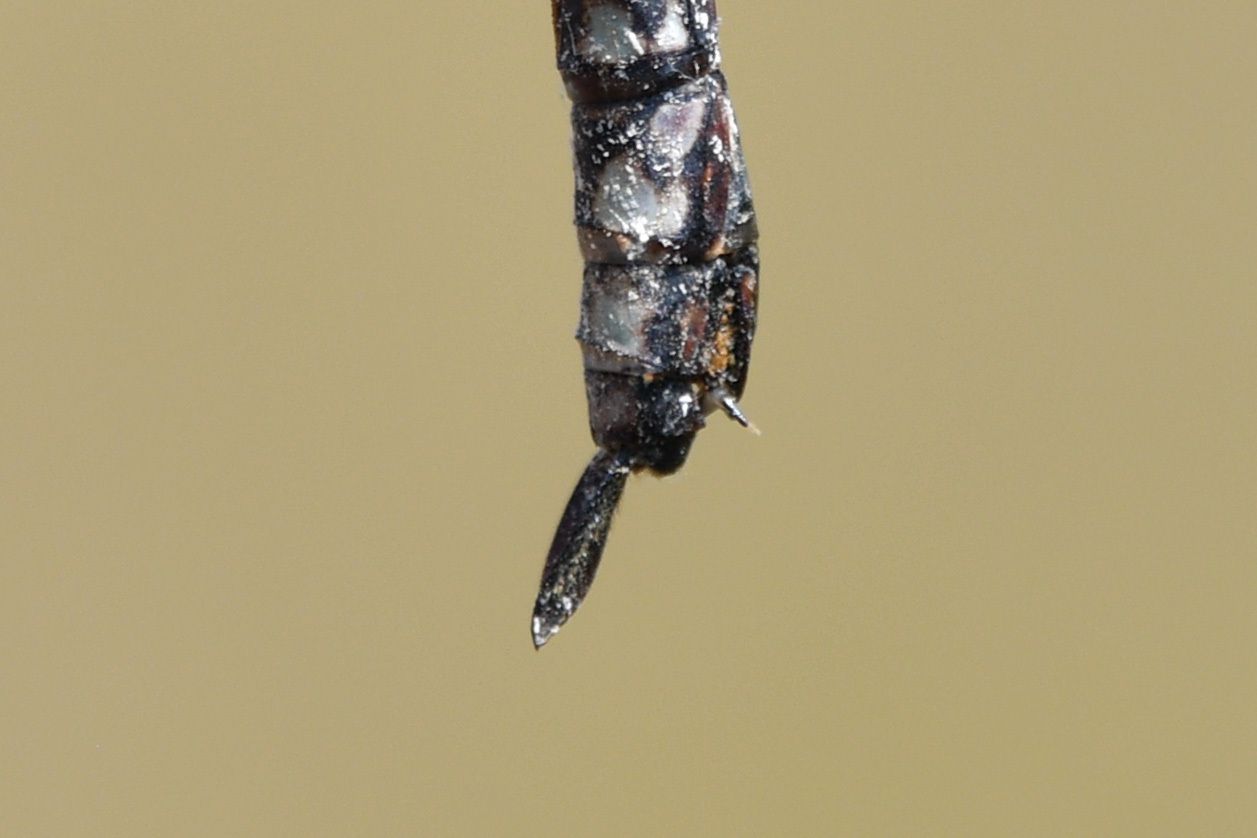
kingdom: Animalia
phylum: Arthropoda
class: Insecta
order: Odonata
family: Aeshnidae
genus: Aeshna
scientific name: Aeshna sitchensis
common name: Zigzag darner
